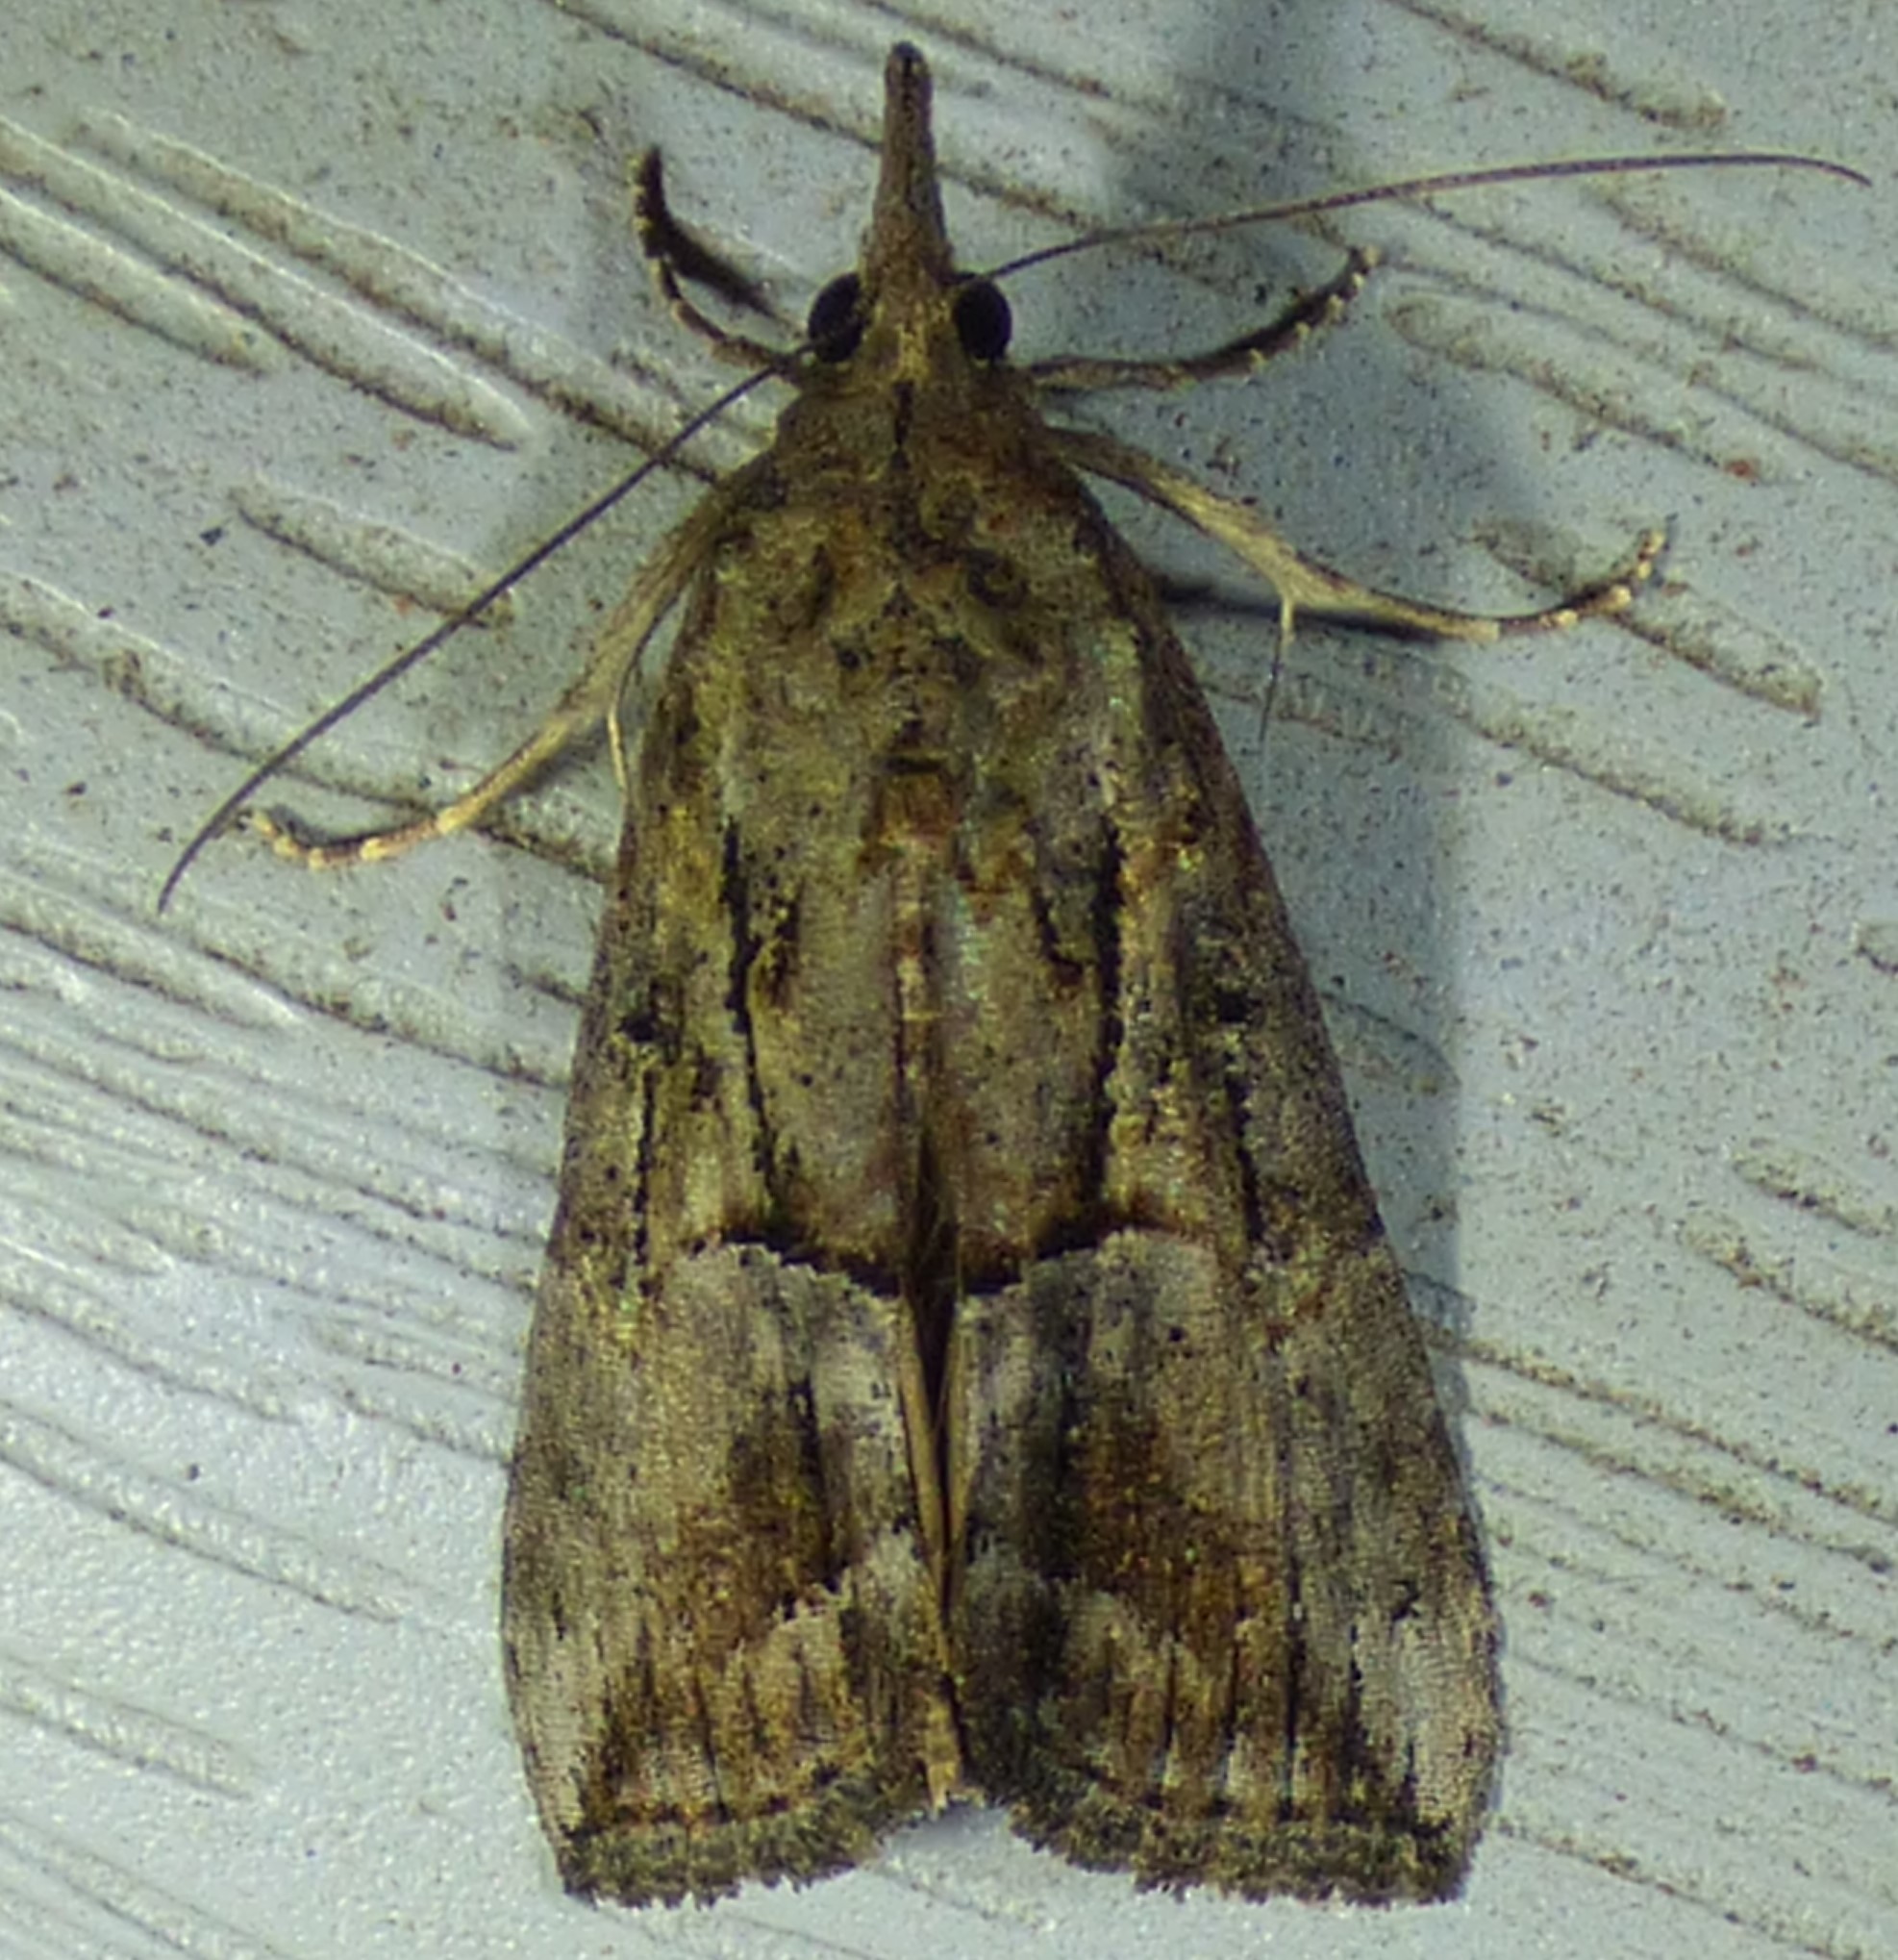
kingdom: Animalia
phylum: Arthropoda
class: Insecta
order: Lepidoptera
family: Erebidae
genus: Hypena
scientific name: Hypena scabra
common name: Green cloverworm
